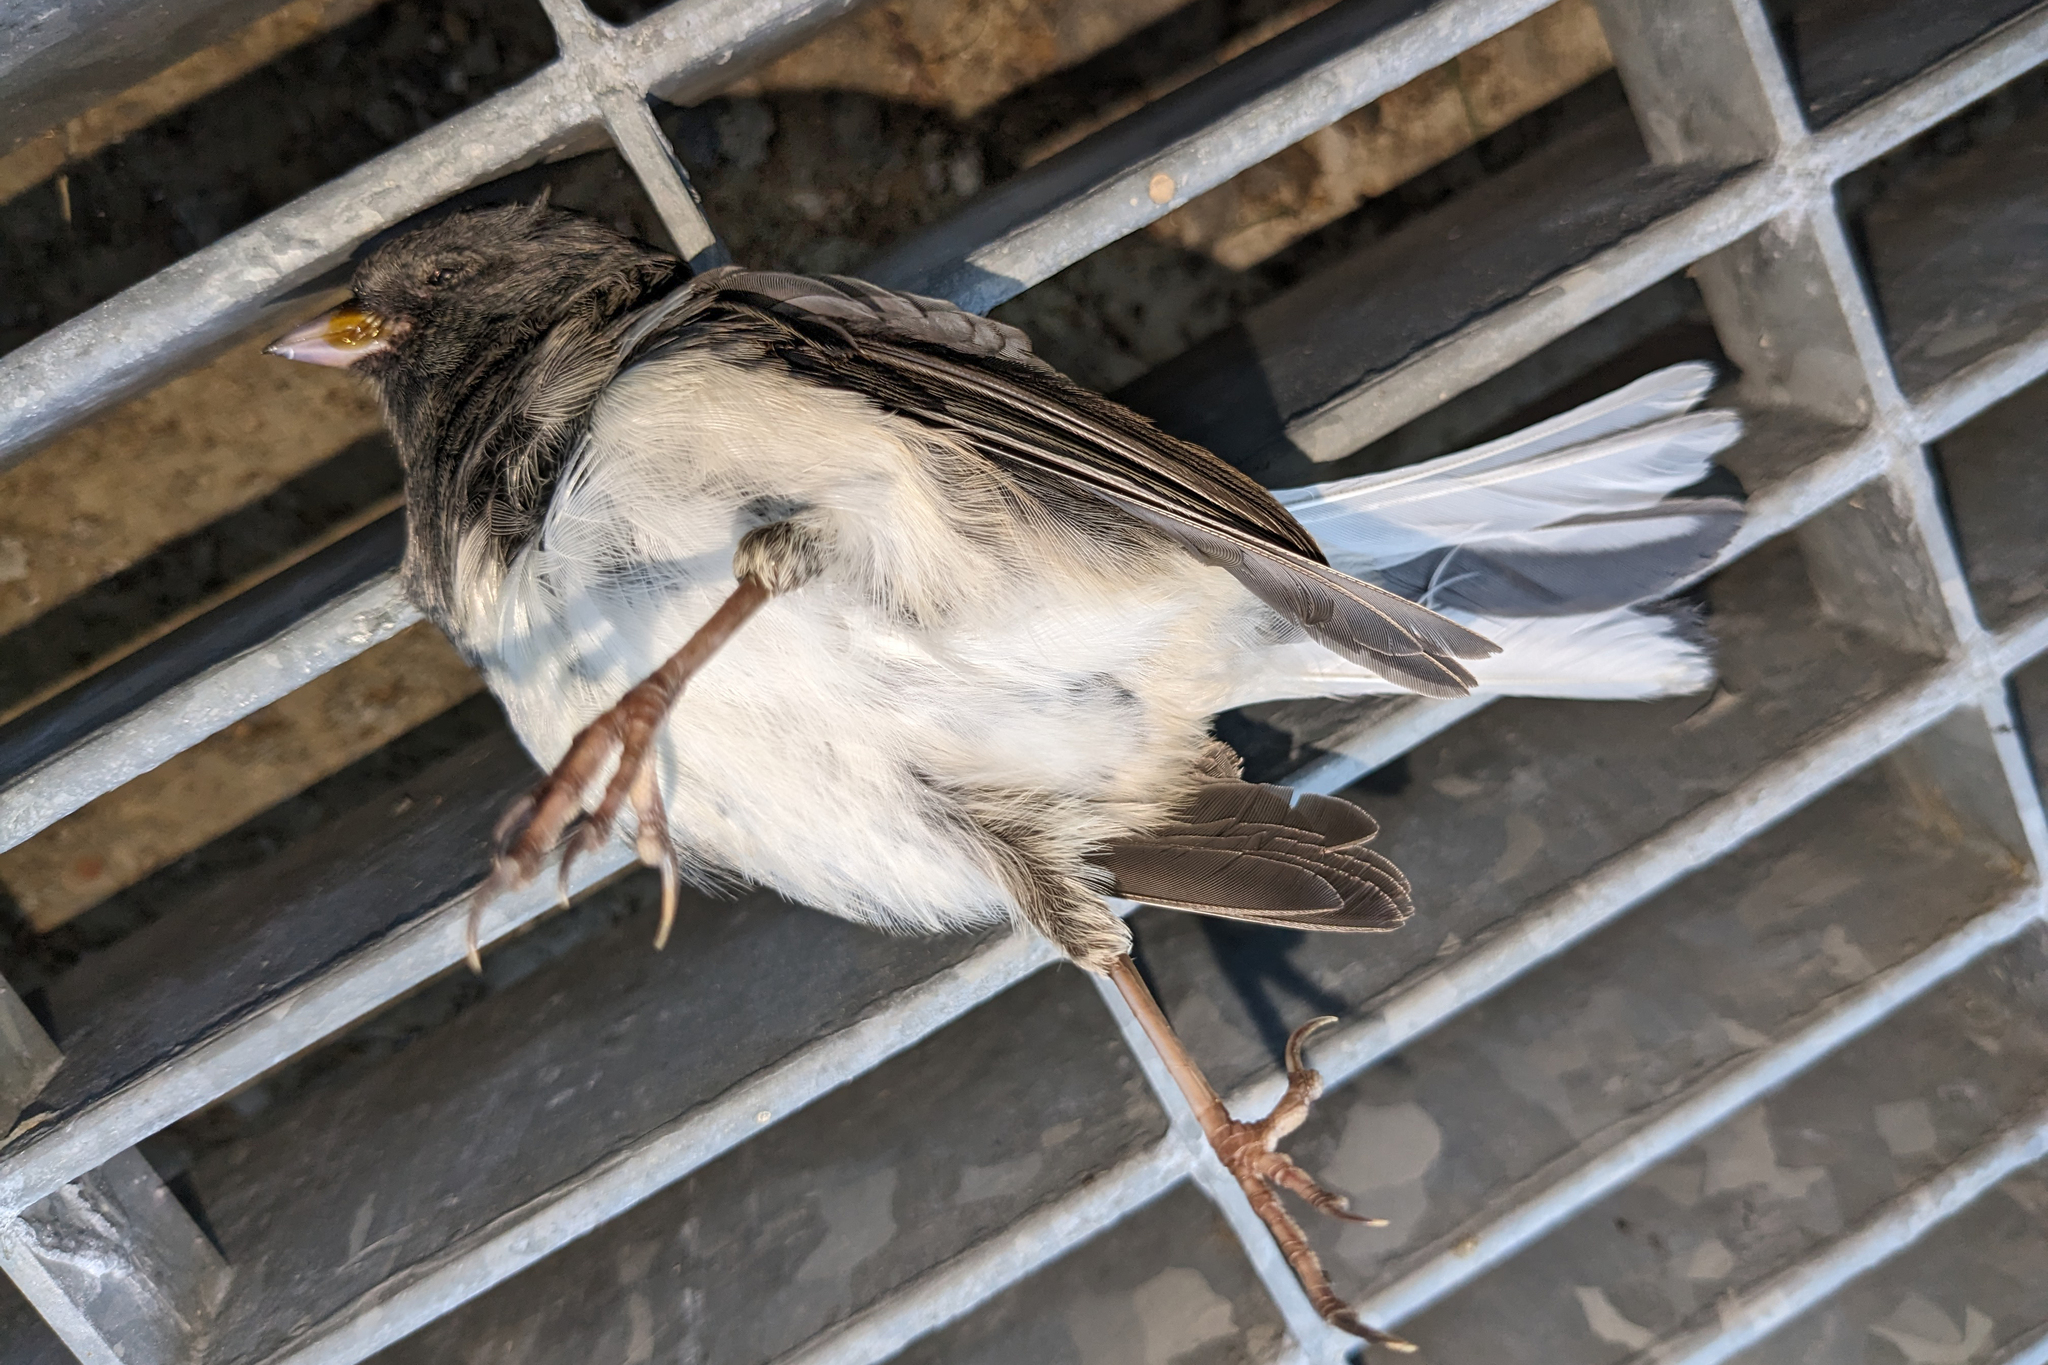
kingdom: Animalia
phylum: Chordata
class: Aves
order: Passeriformes
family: Passerellidae
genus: Junco
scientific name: Junco hyemalis
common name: Dark-eyed junco
